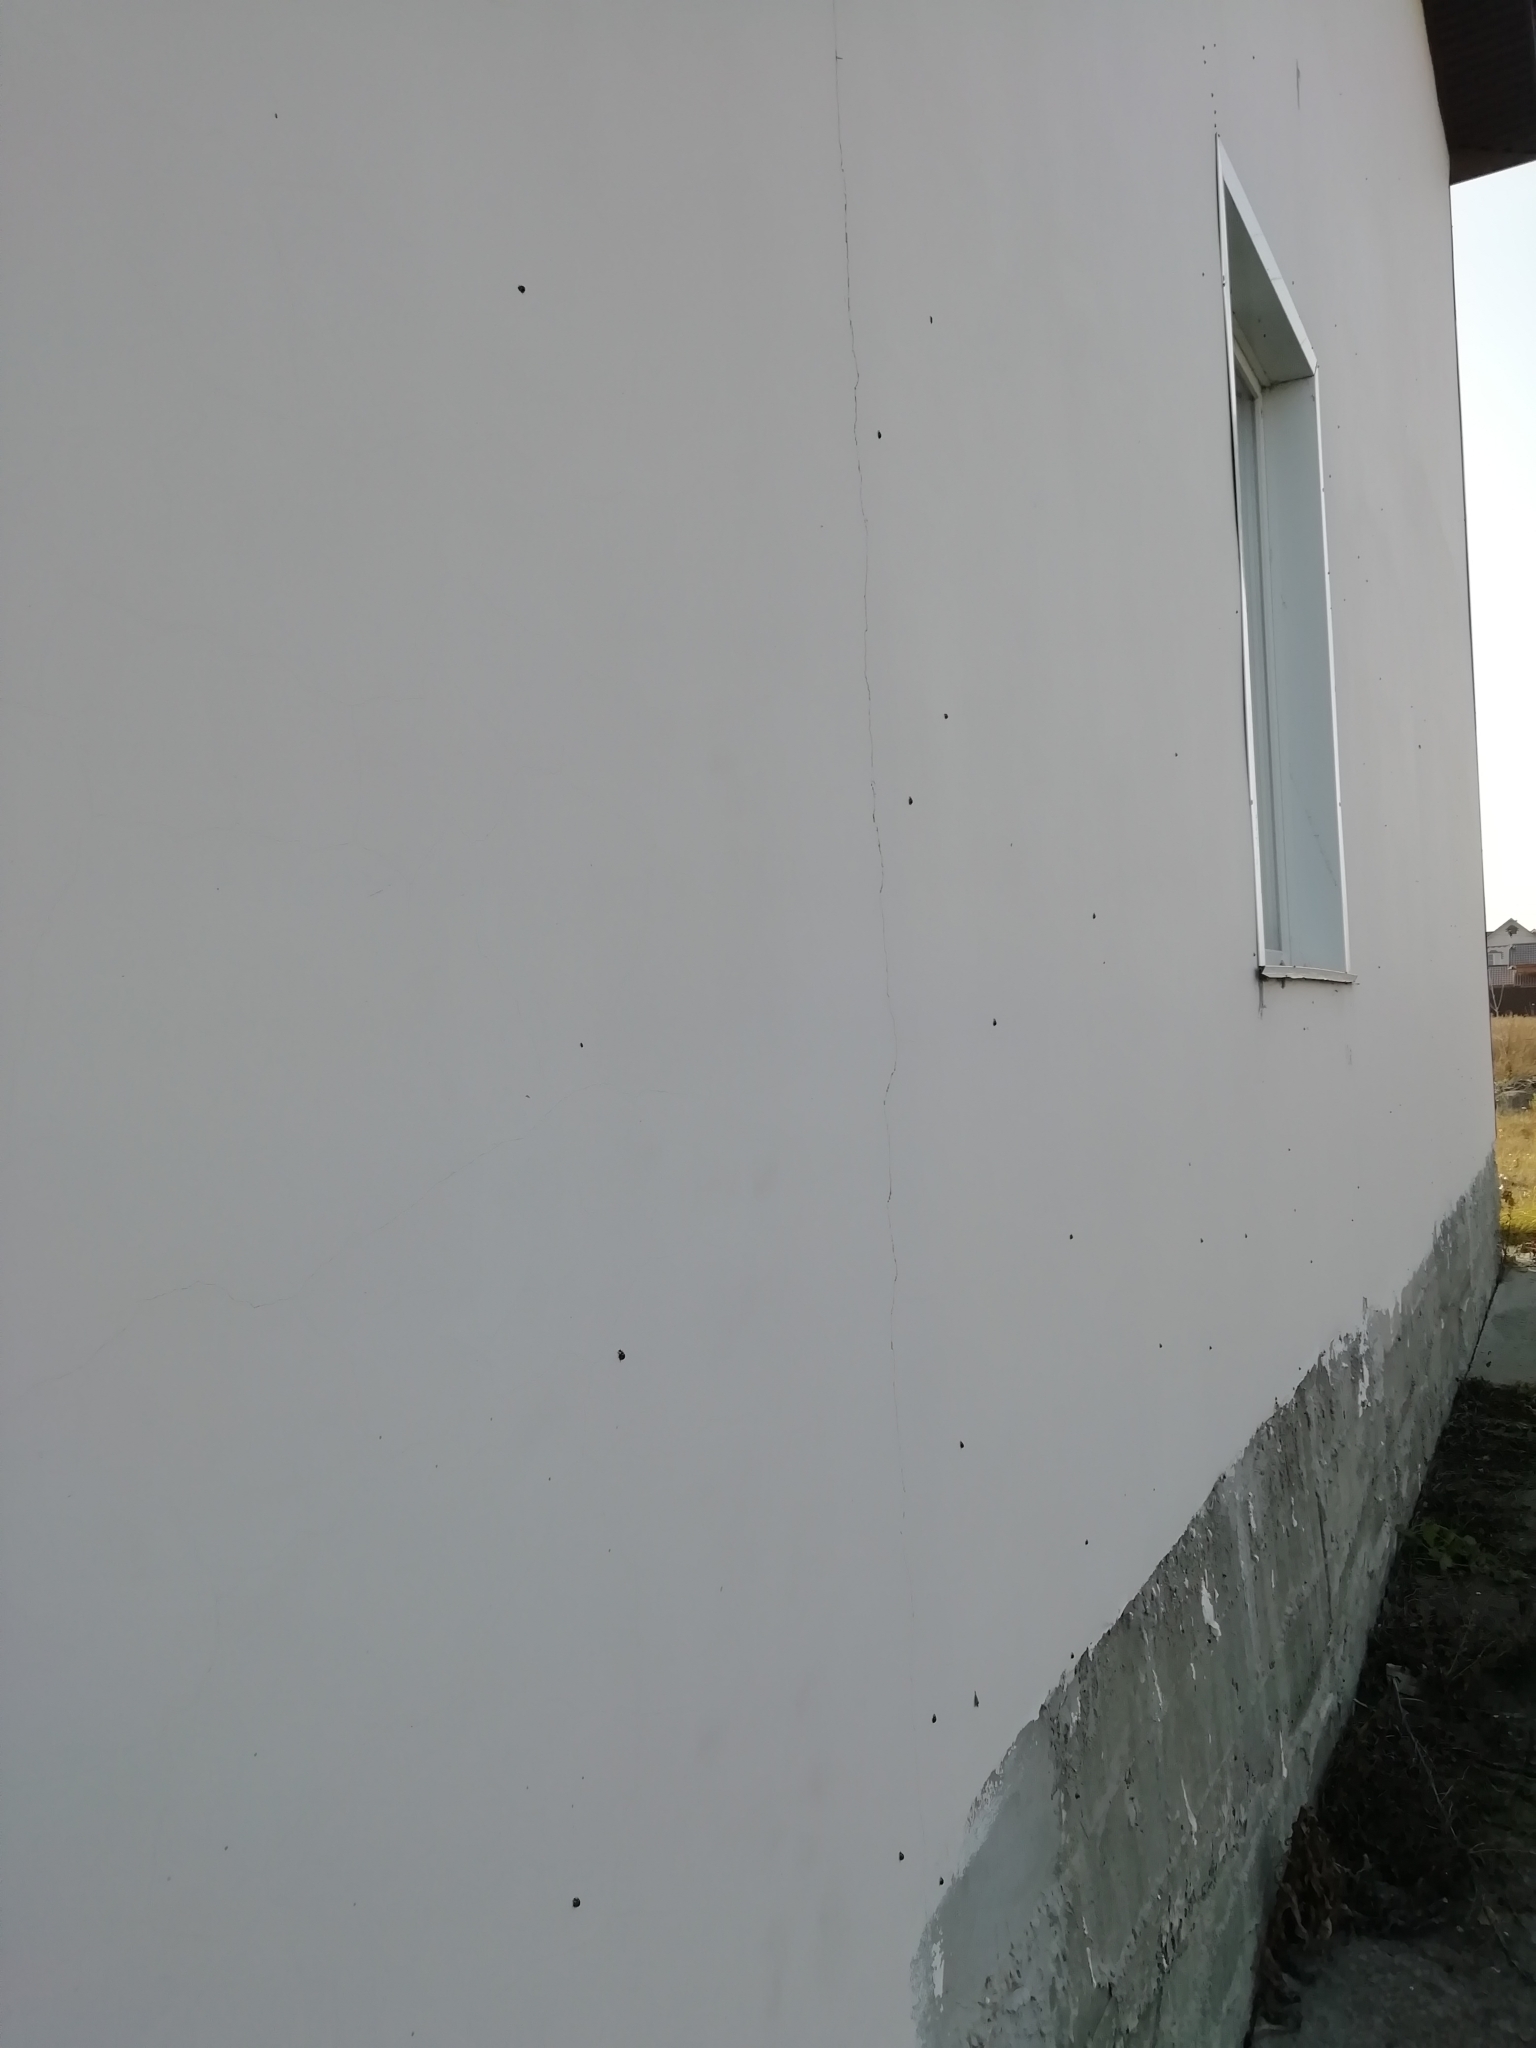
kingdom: Animalia
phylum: Arthropoda
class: Insecta
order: Coleoptera
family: Coccinellidae
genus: Harmonia
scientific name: Harmonia axyridis
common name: Harlequin ladybird
